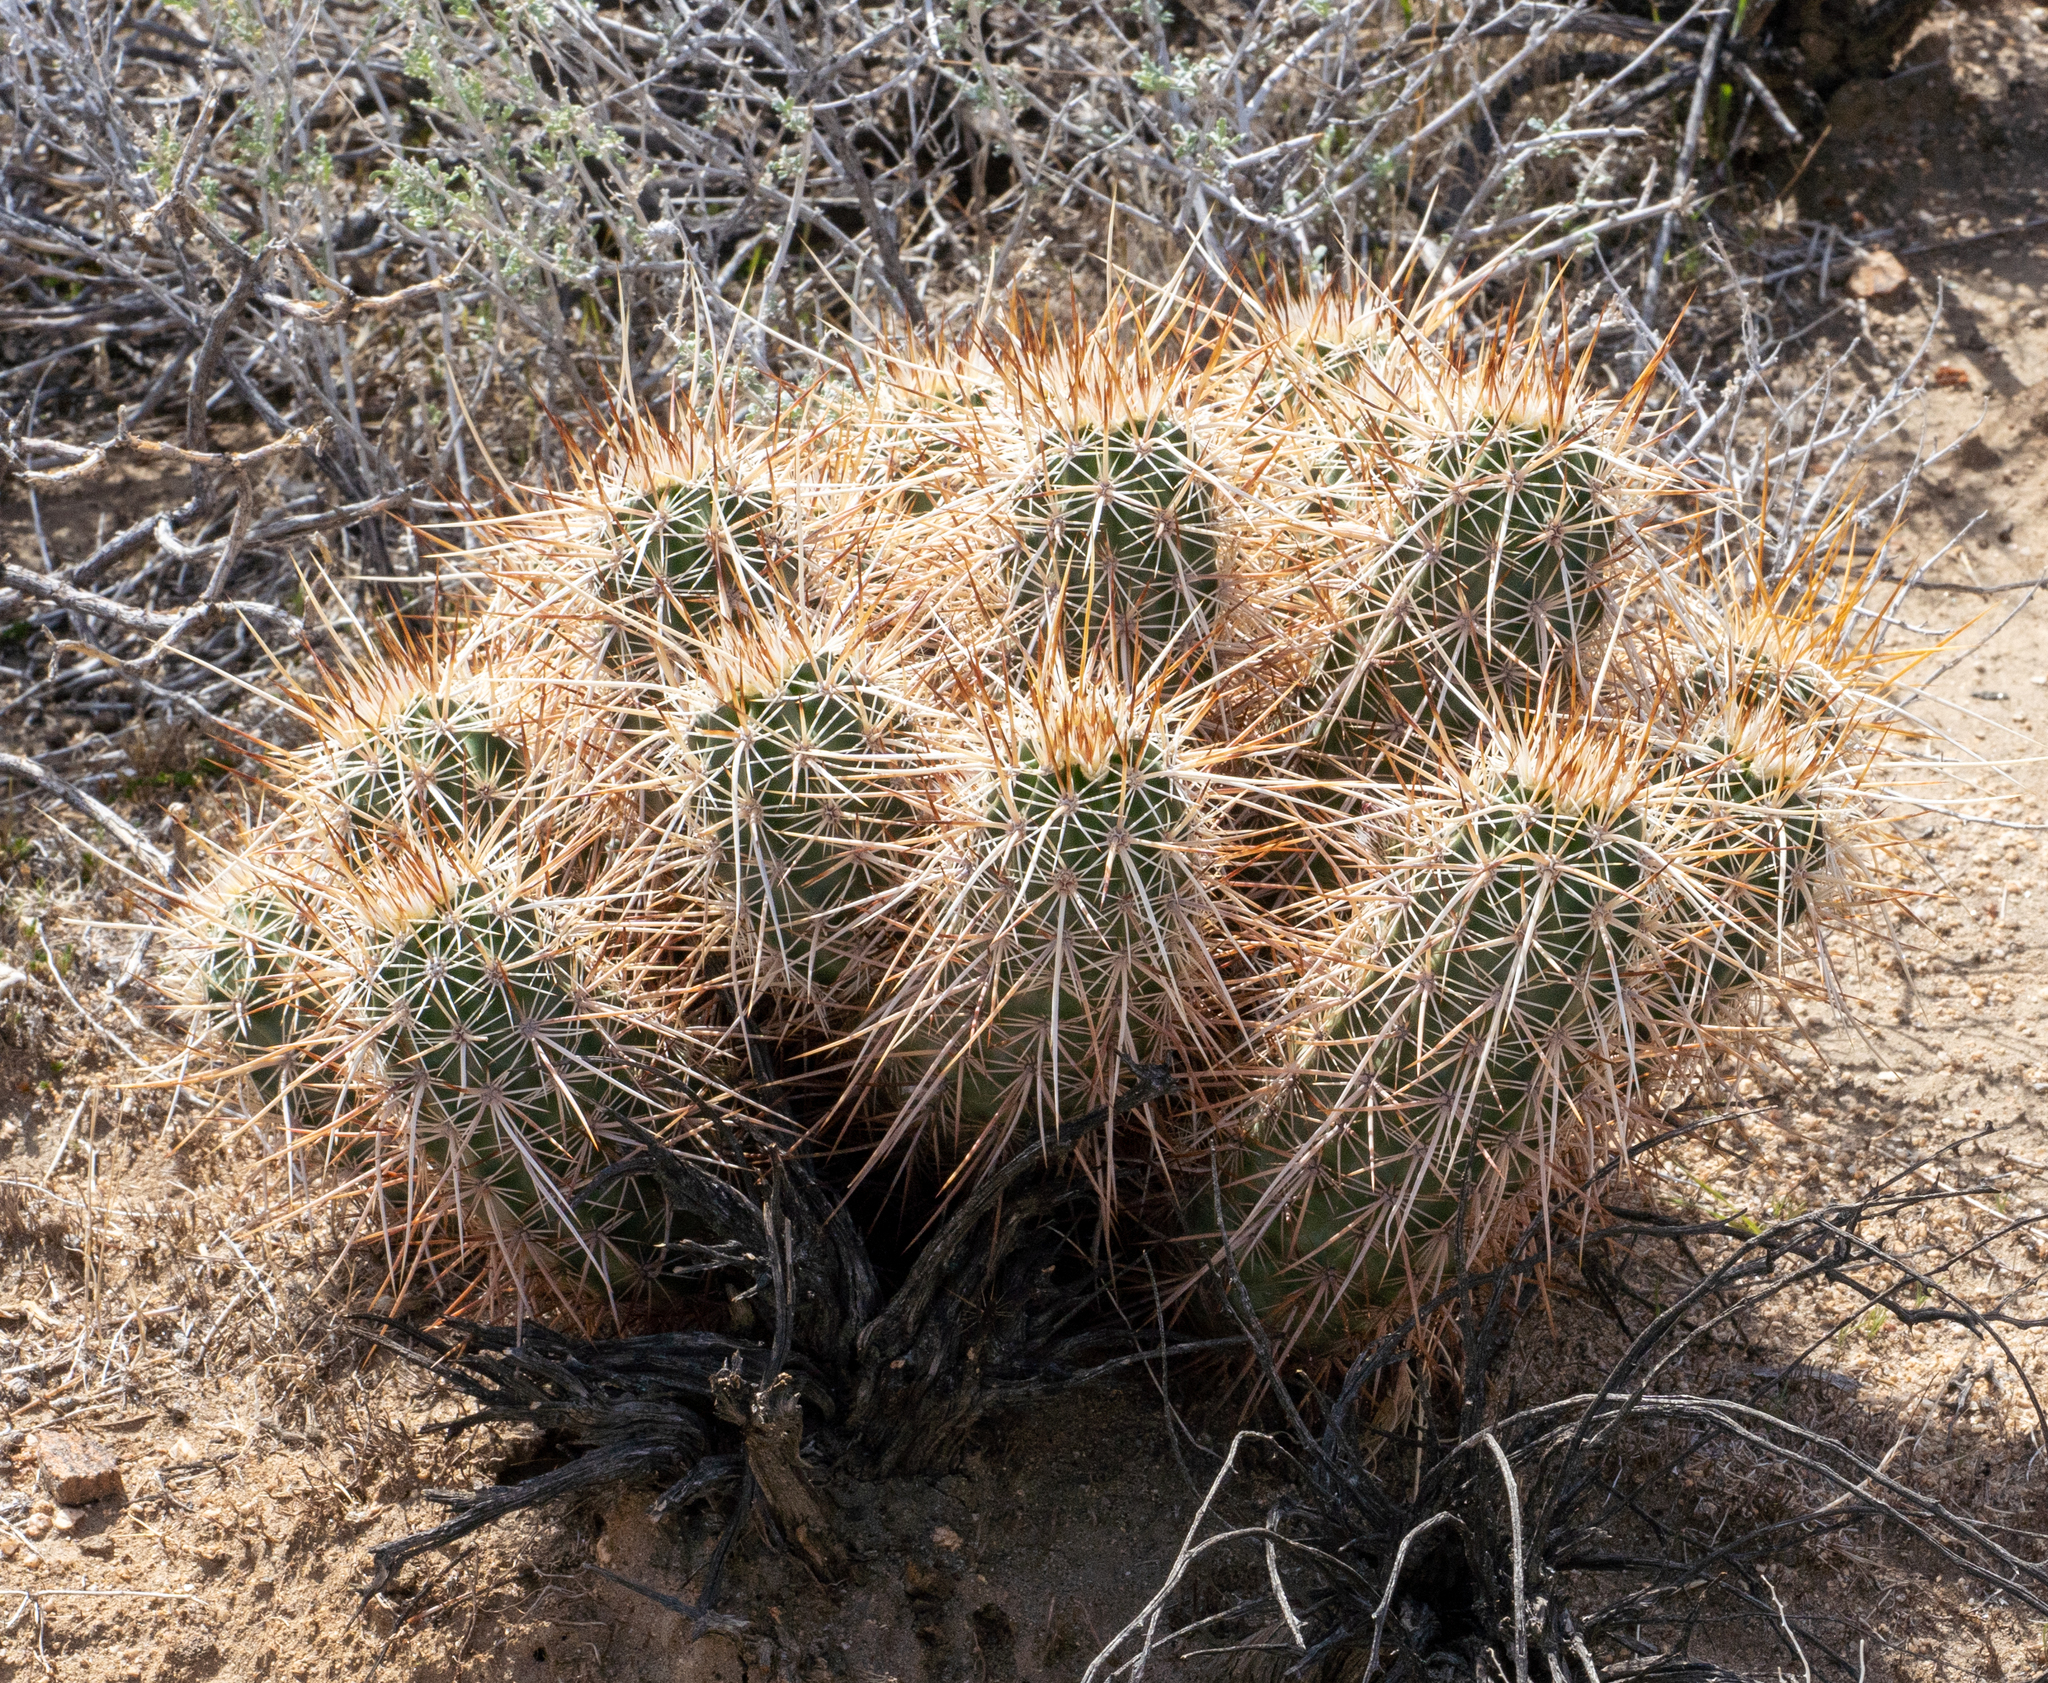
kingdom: Plantae
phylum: Tracheophyta
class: Magnoliopsida
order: Caryophyllales
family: Cactaceae
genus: Echinocereus
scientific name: Echinocereus engelmannii
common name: Engelmann's hedgehog cactus
